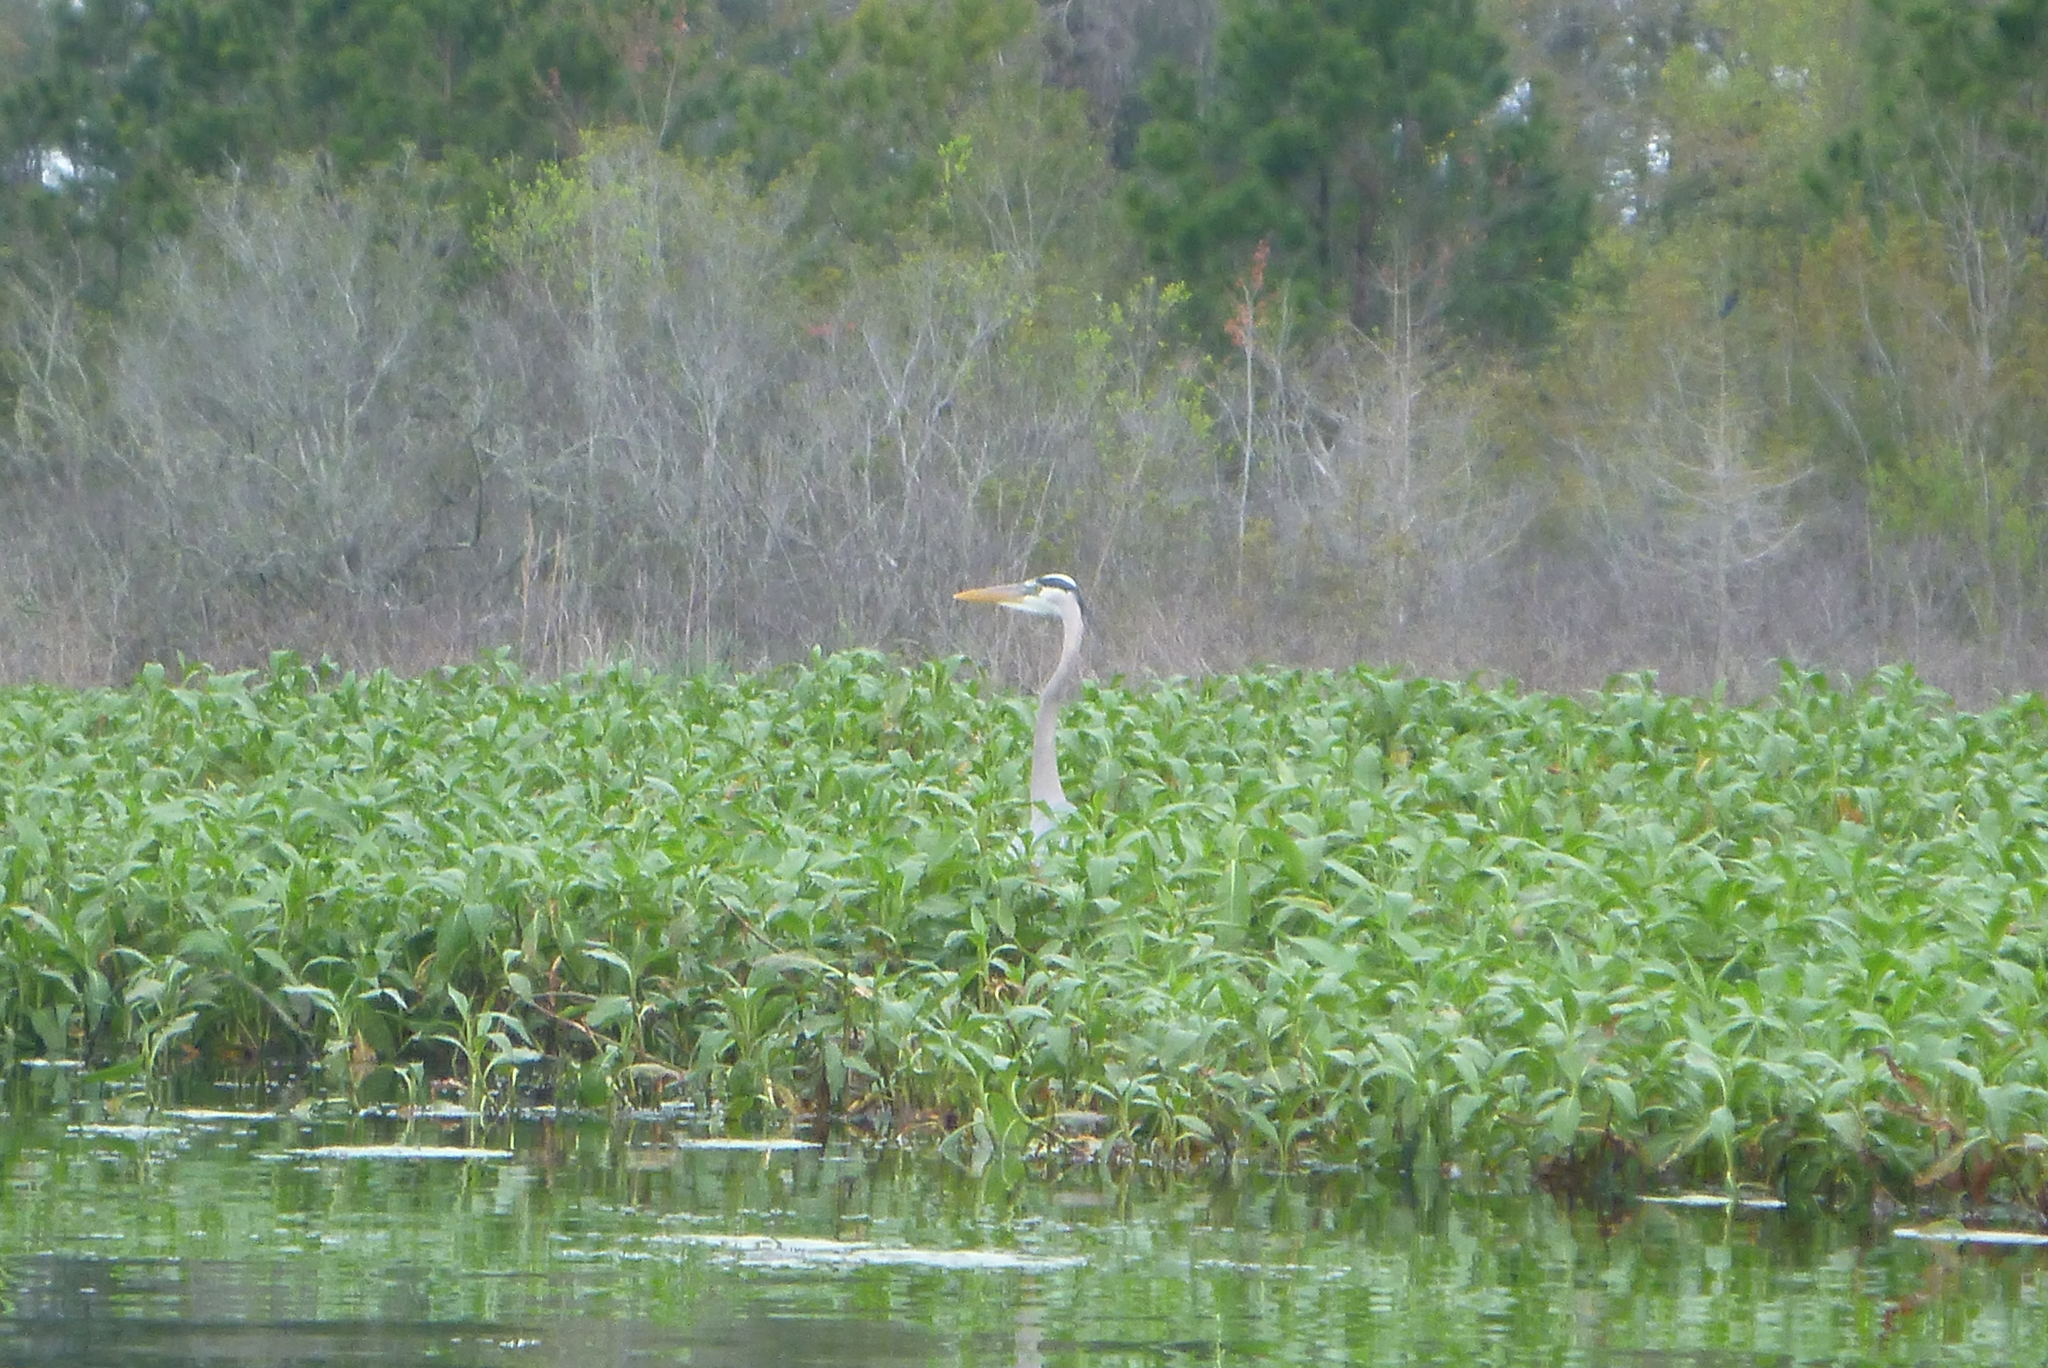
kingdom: Animalia
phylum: Chordata
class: Aves
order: Pelecaniformes
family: Ardeidae
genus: Ardea
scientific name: Ardea herodias
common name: Great blue heron
